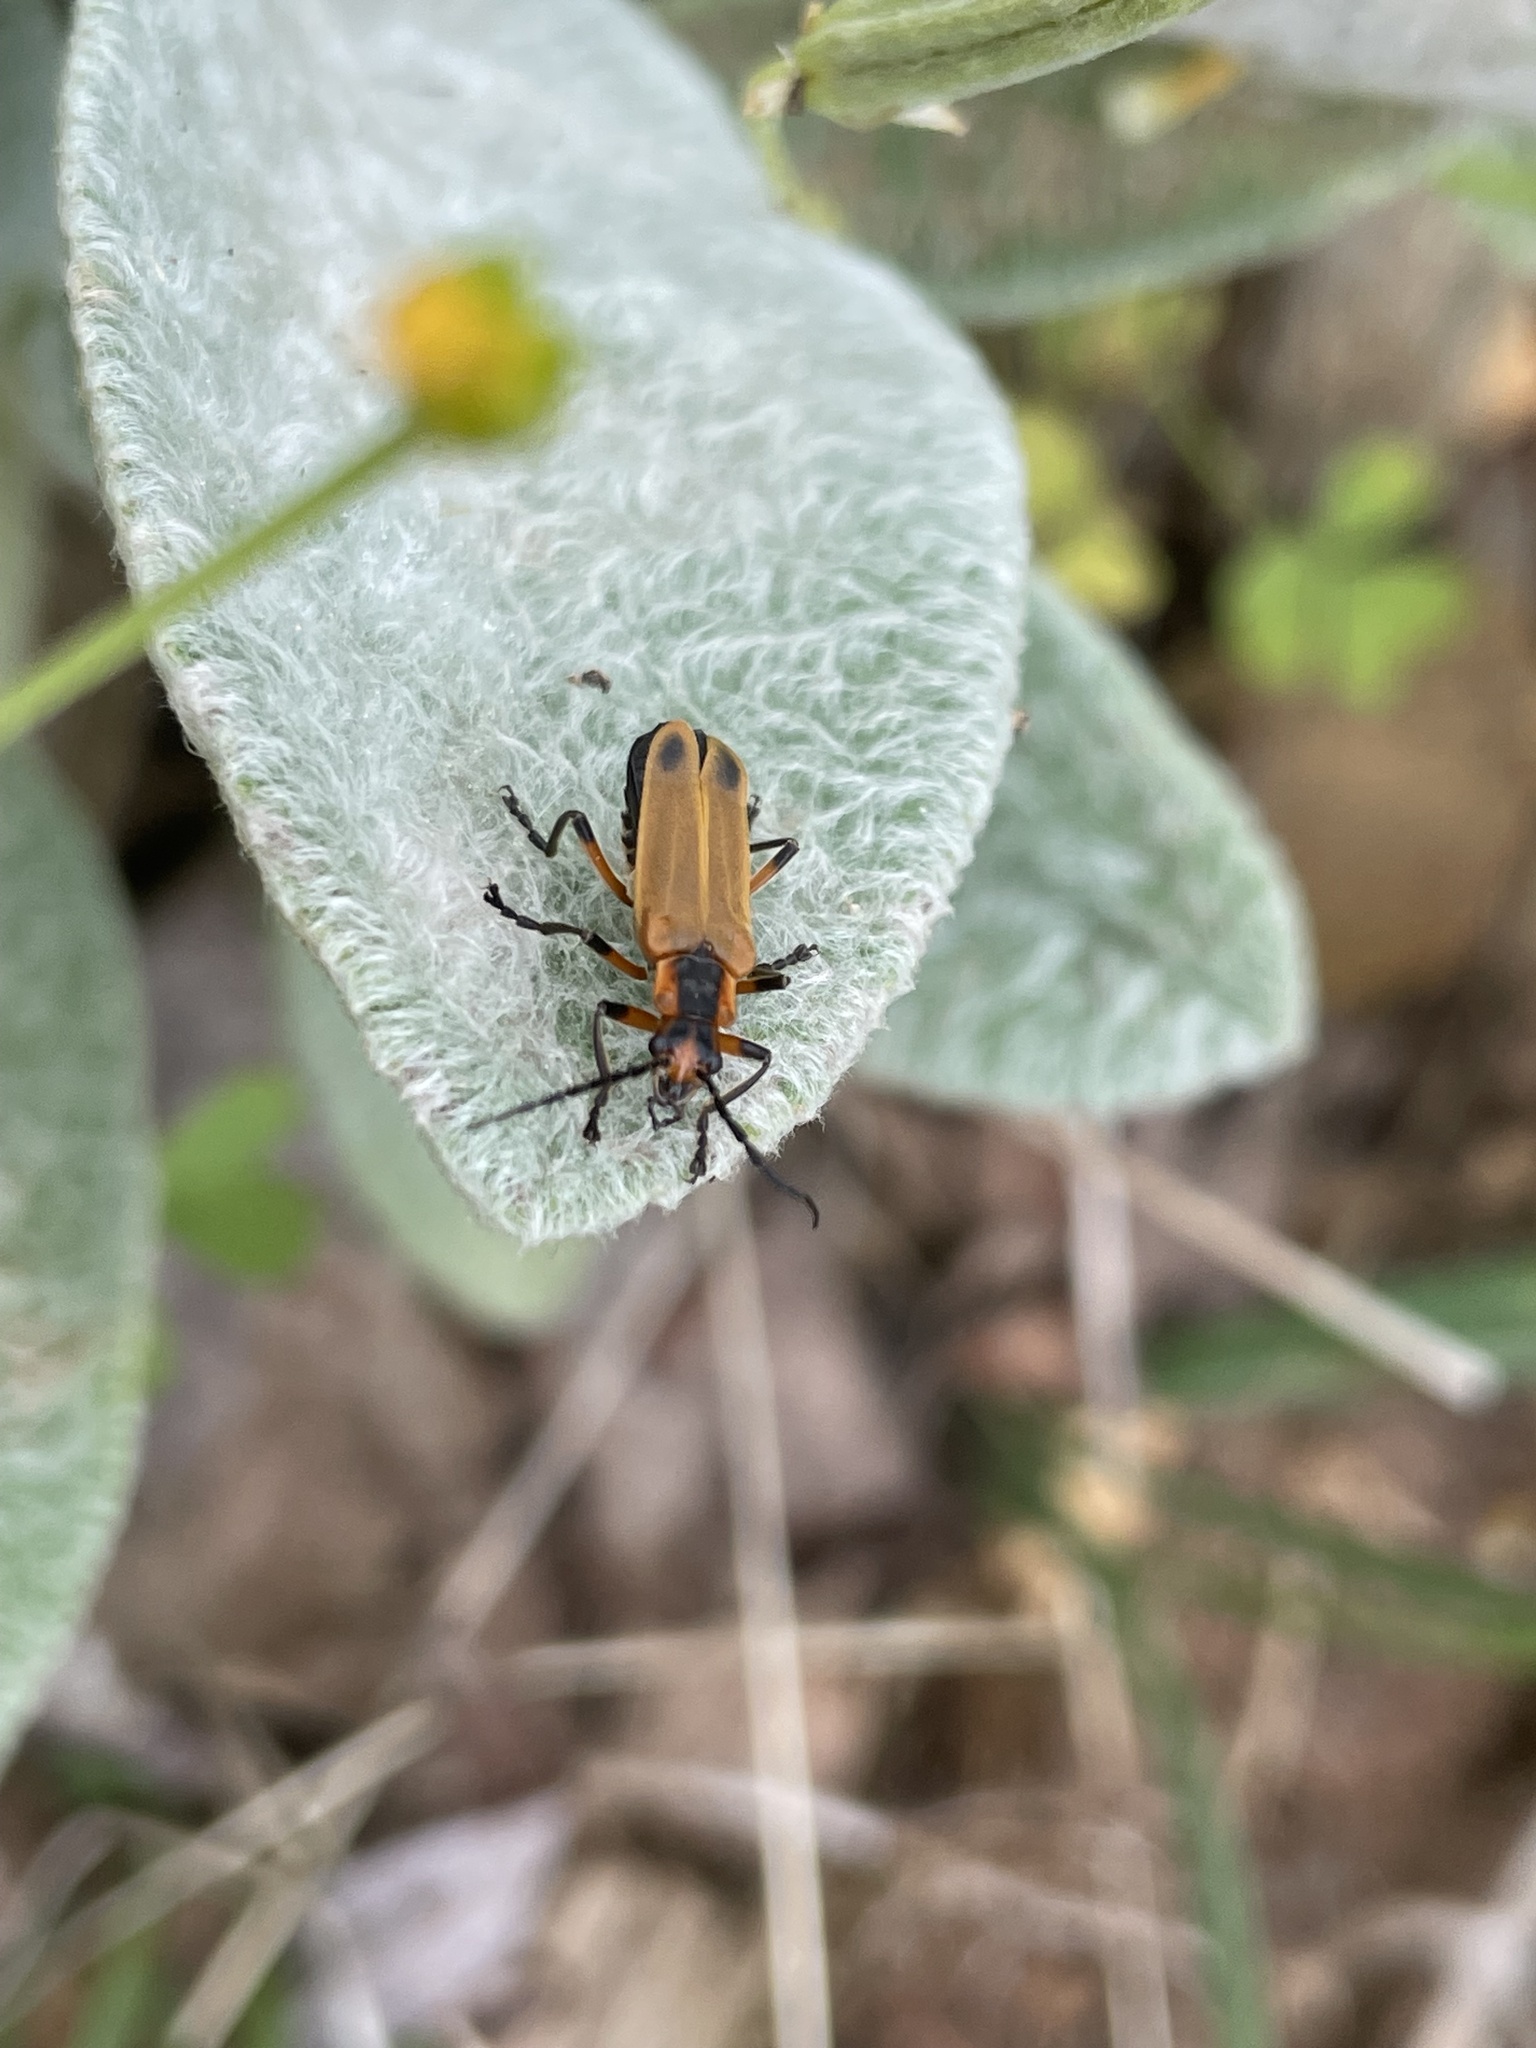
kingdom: Animalia
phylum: Arthropoda
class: Insecta
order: Coleoptera
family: Cantharidae
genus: Chauliognathus
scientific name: Chauliognathus marginatus
